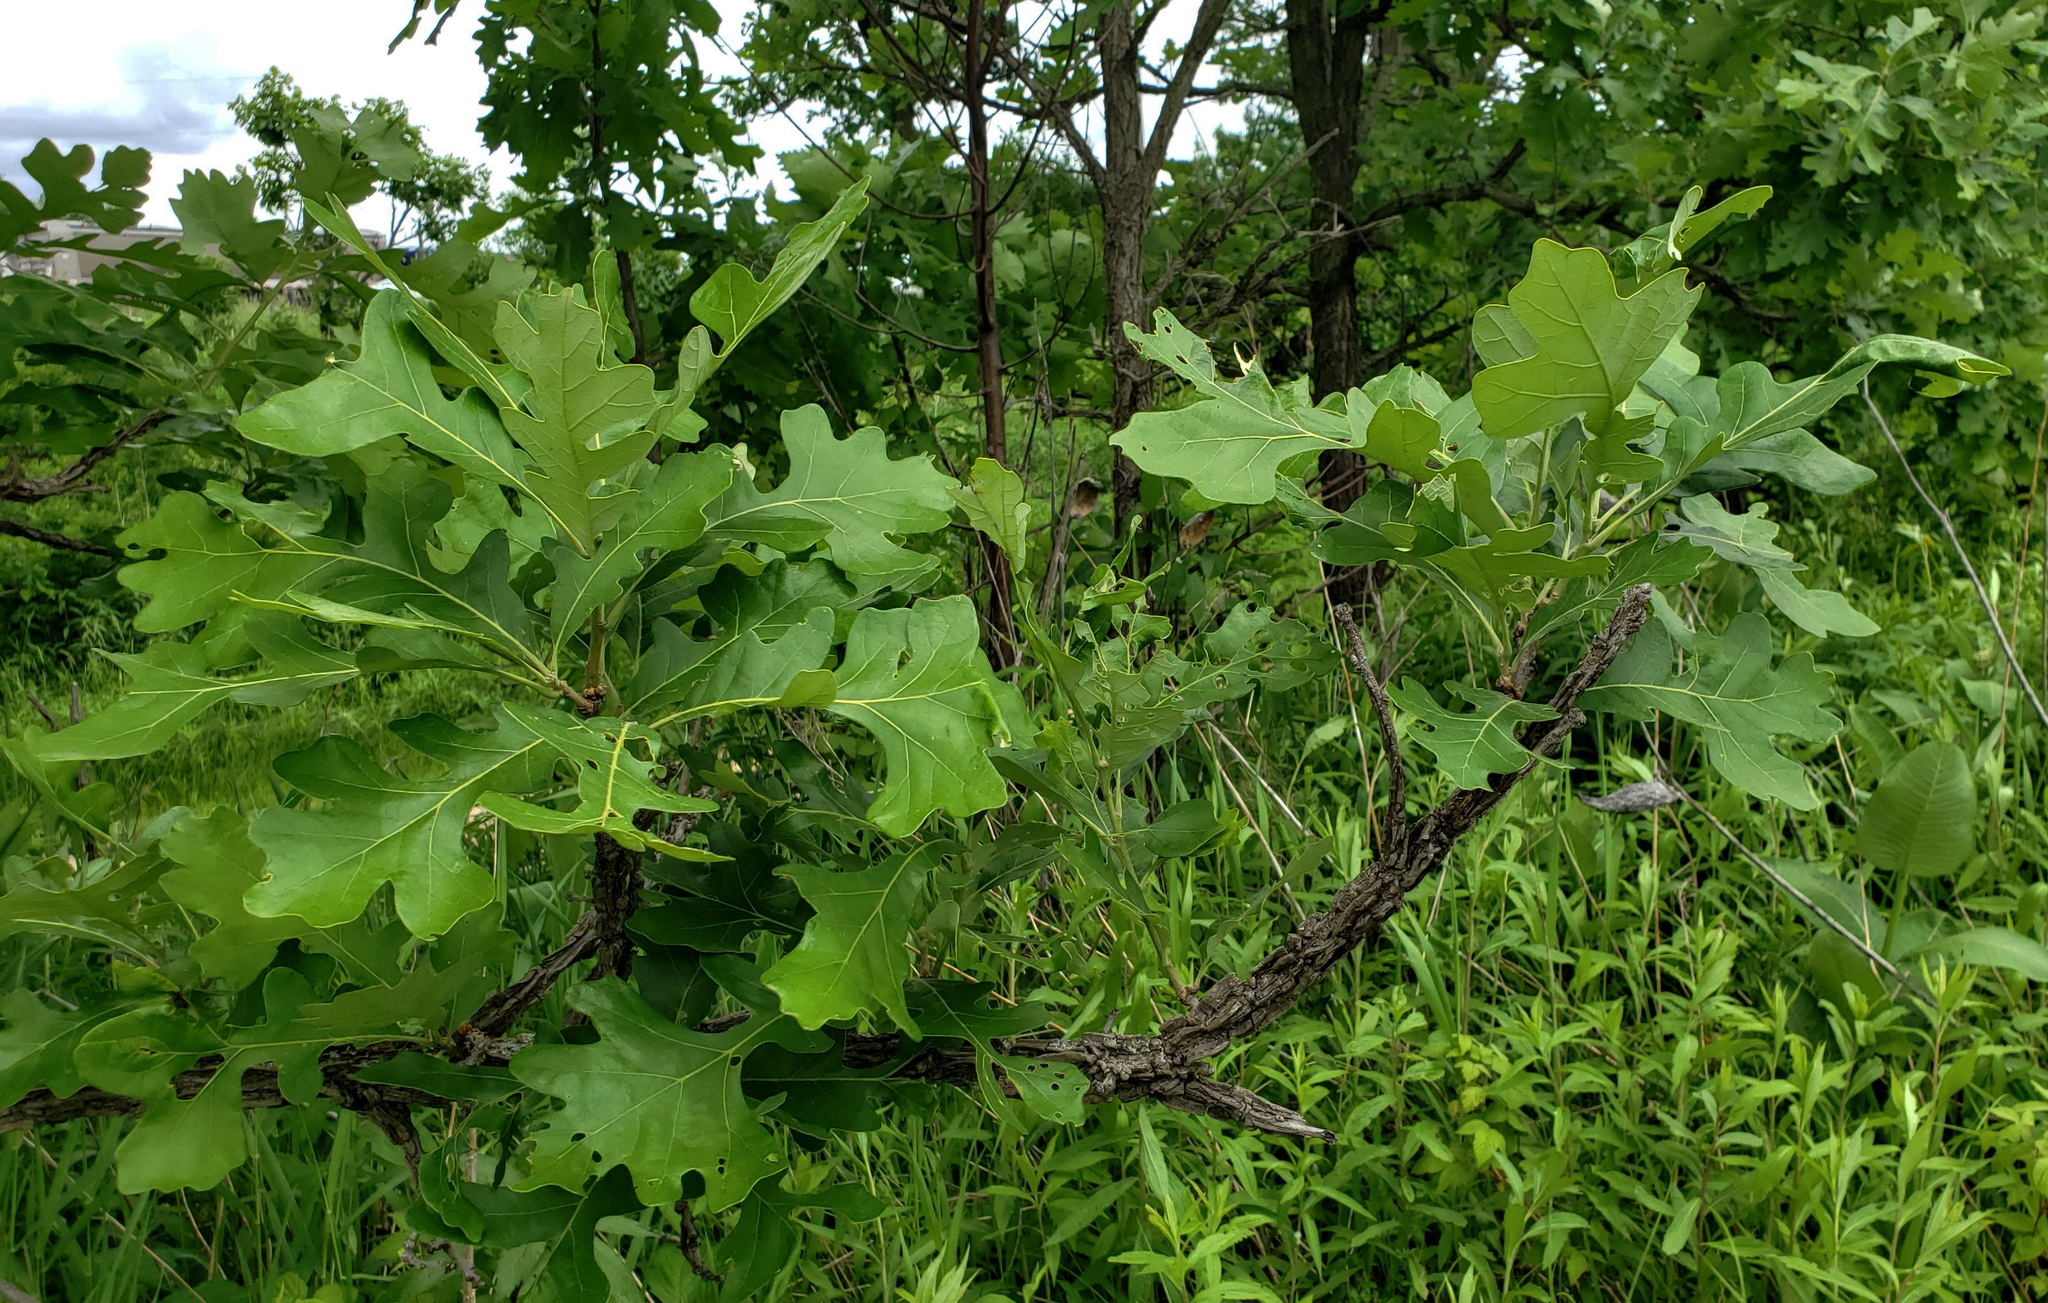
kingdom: Plantae
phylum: Tracheophyta
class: Magnoliopsida
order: Fagales
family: Fagaceae
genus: Quercus
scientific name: Quercus macrocarpa
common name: Bur oak
